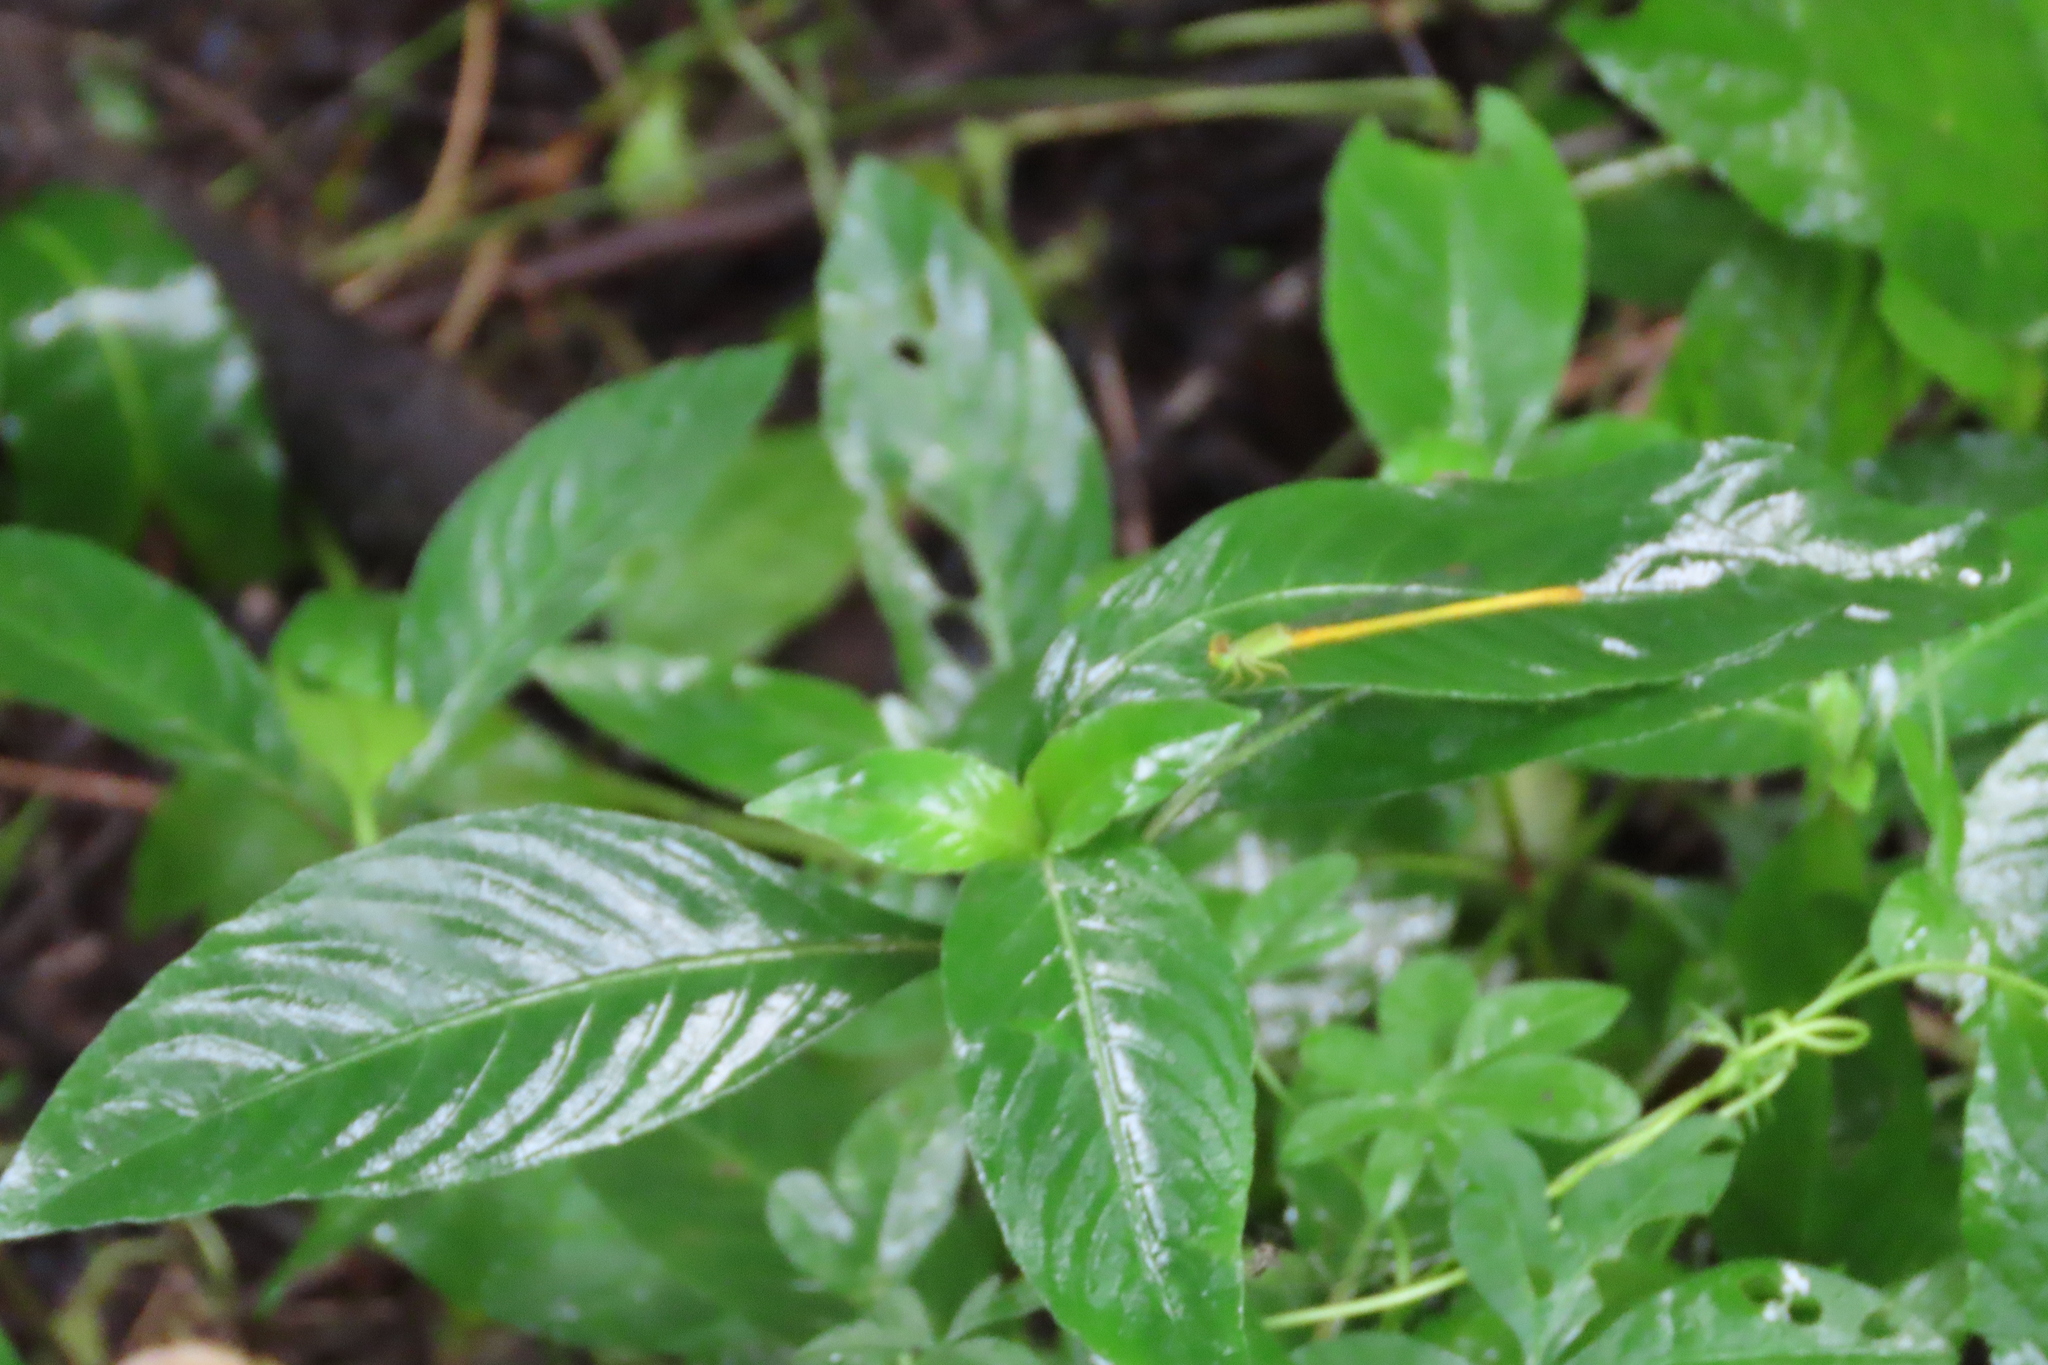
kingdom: Animalia
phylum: Arthropoda
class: Insecta
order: Odonata
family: Coenagrionidae
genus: Ceriagrion
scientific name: Ceriagrion coromandelianum
